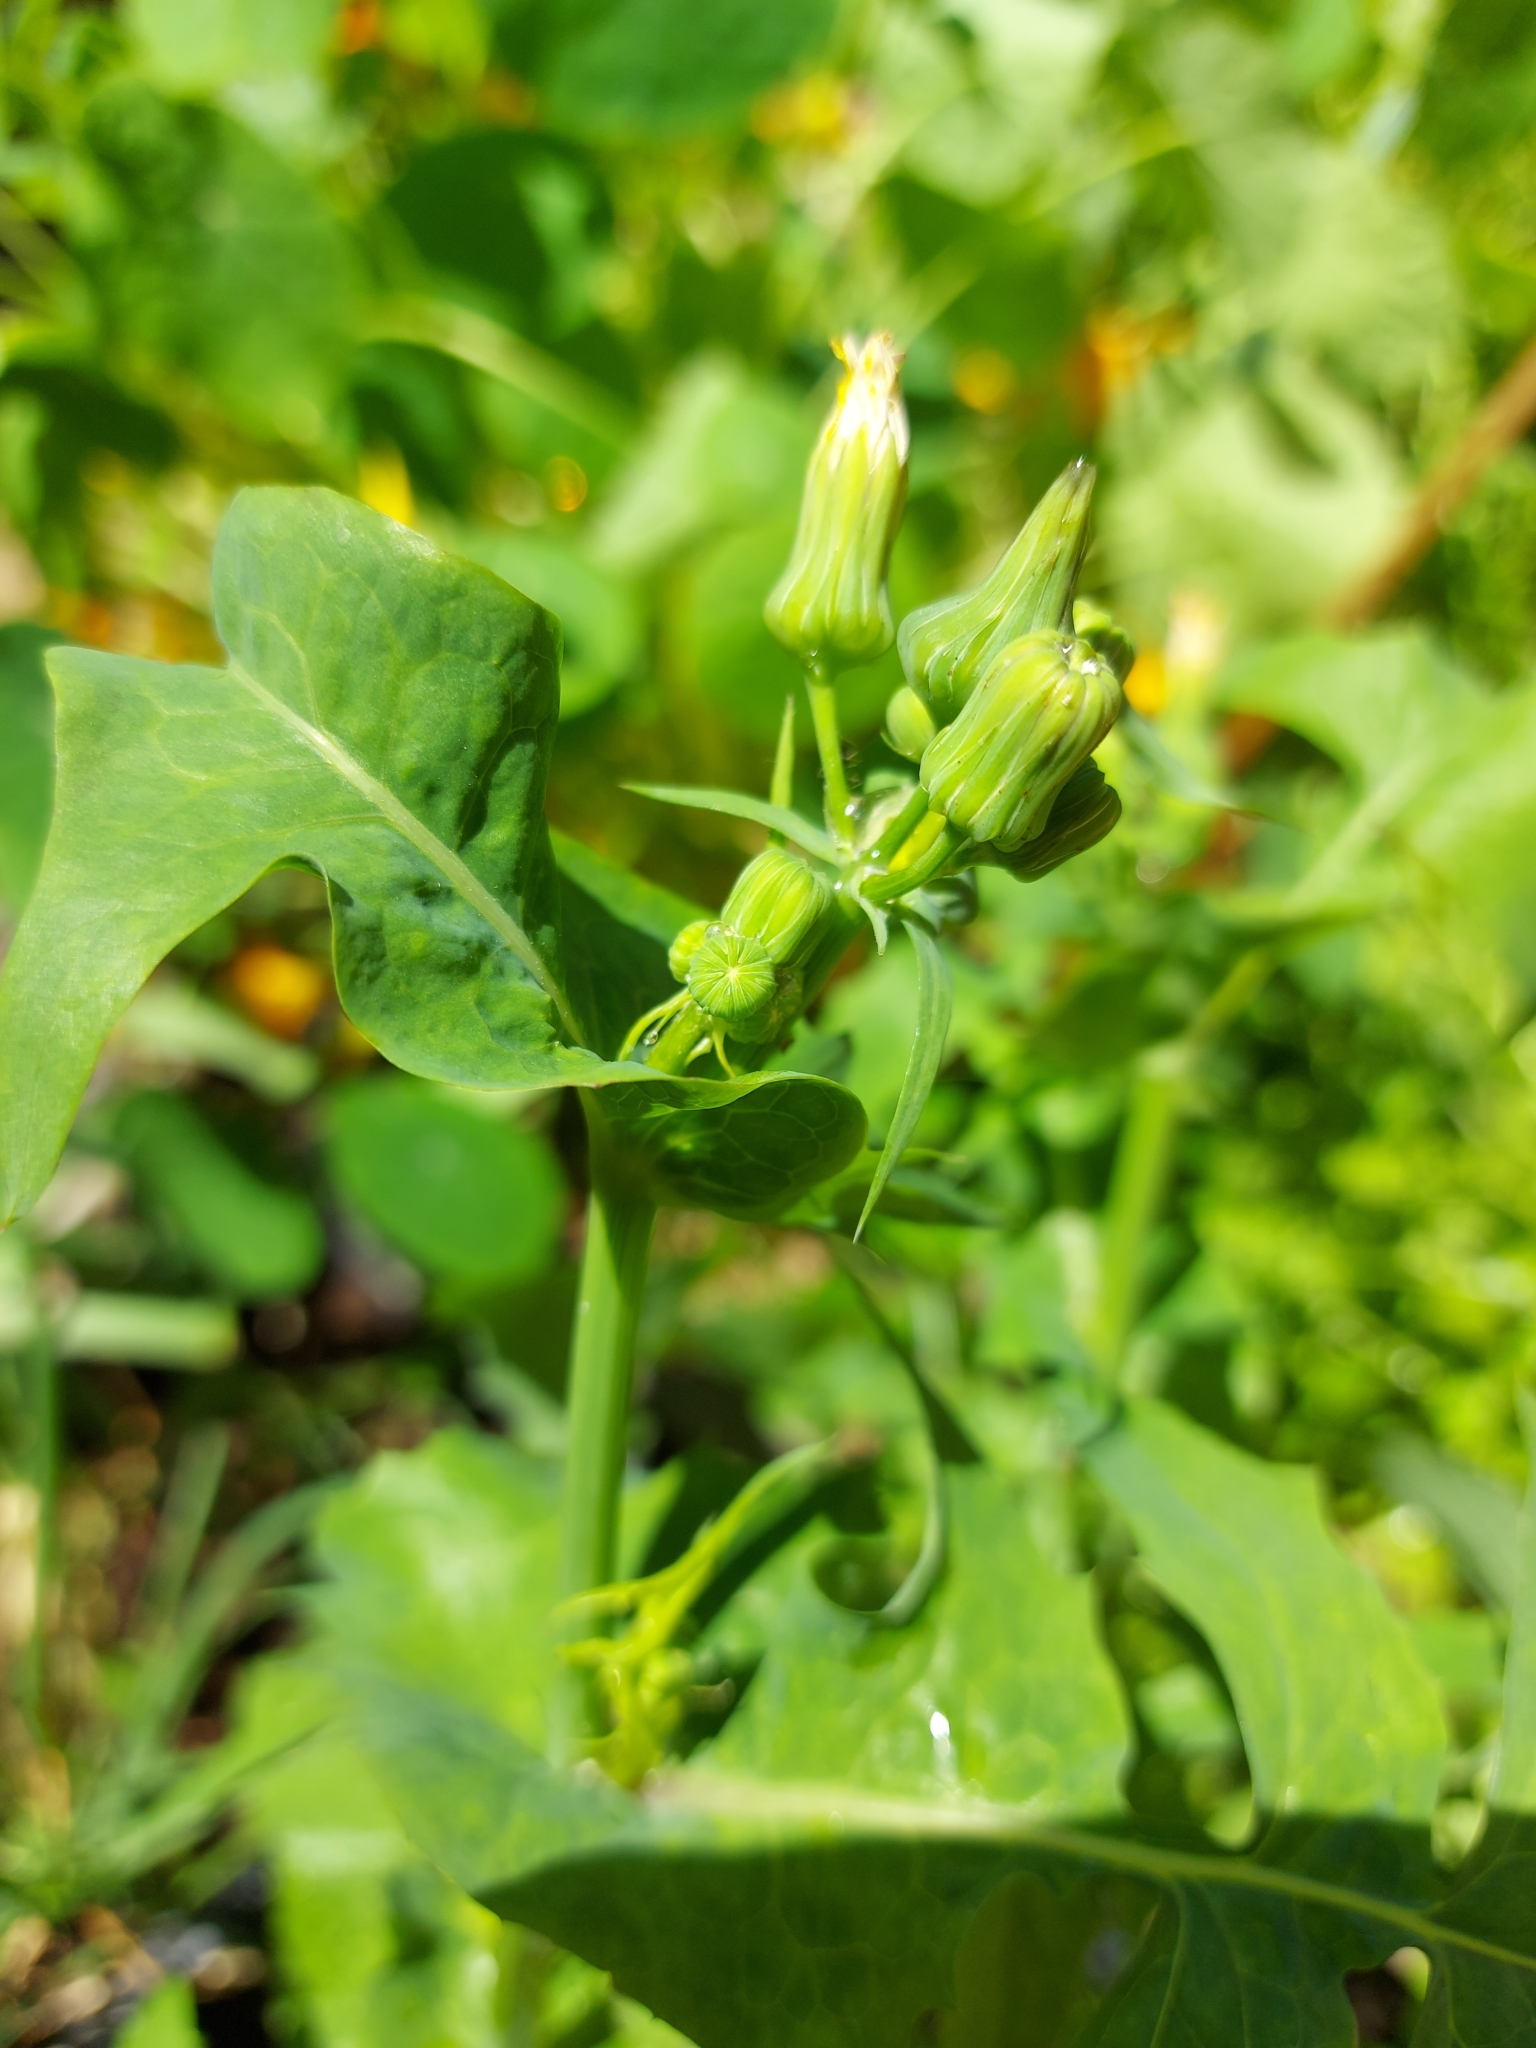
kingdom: Plantae
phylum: Tracheophyta
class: Magnoliopsida
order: Asterales
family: Asteraceae
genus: Sonchus
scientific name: Sonchus oleraceus
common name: Common sowthistle
